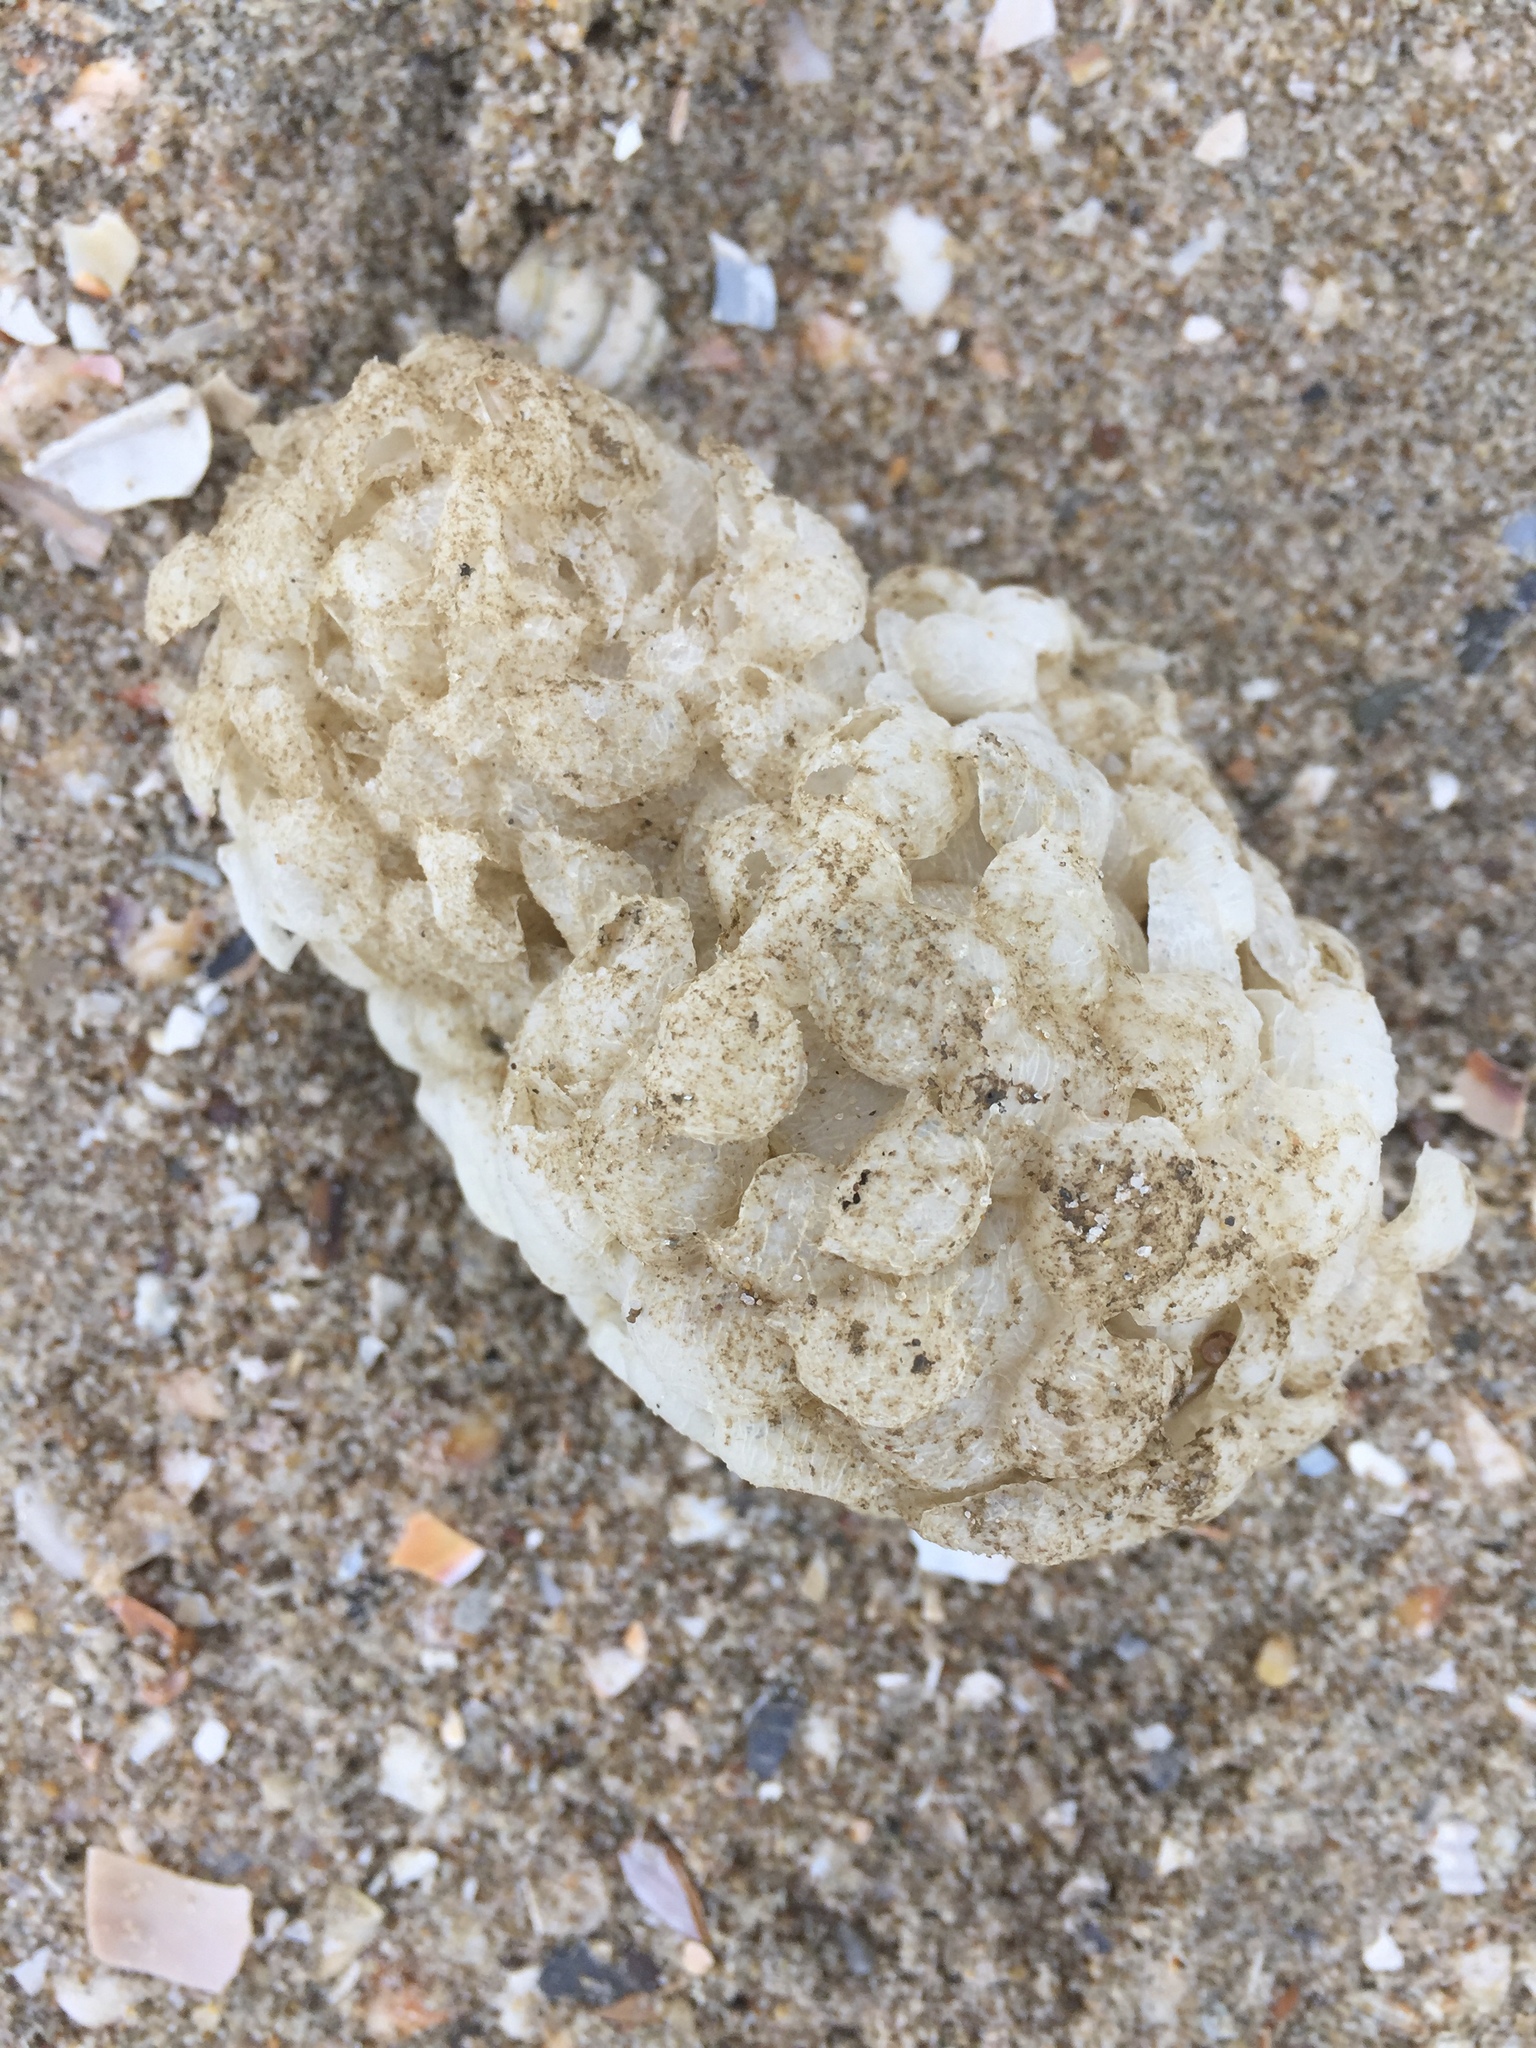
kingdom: Animalia
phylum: Mollusca
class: Gastropoda
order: Neogastropoda
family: Buccinidae
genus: Buccinum
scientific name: Buccinum undatum
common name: Common whelk
